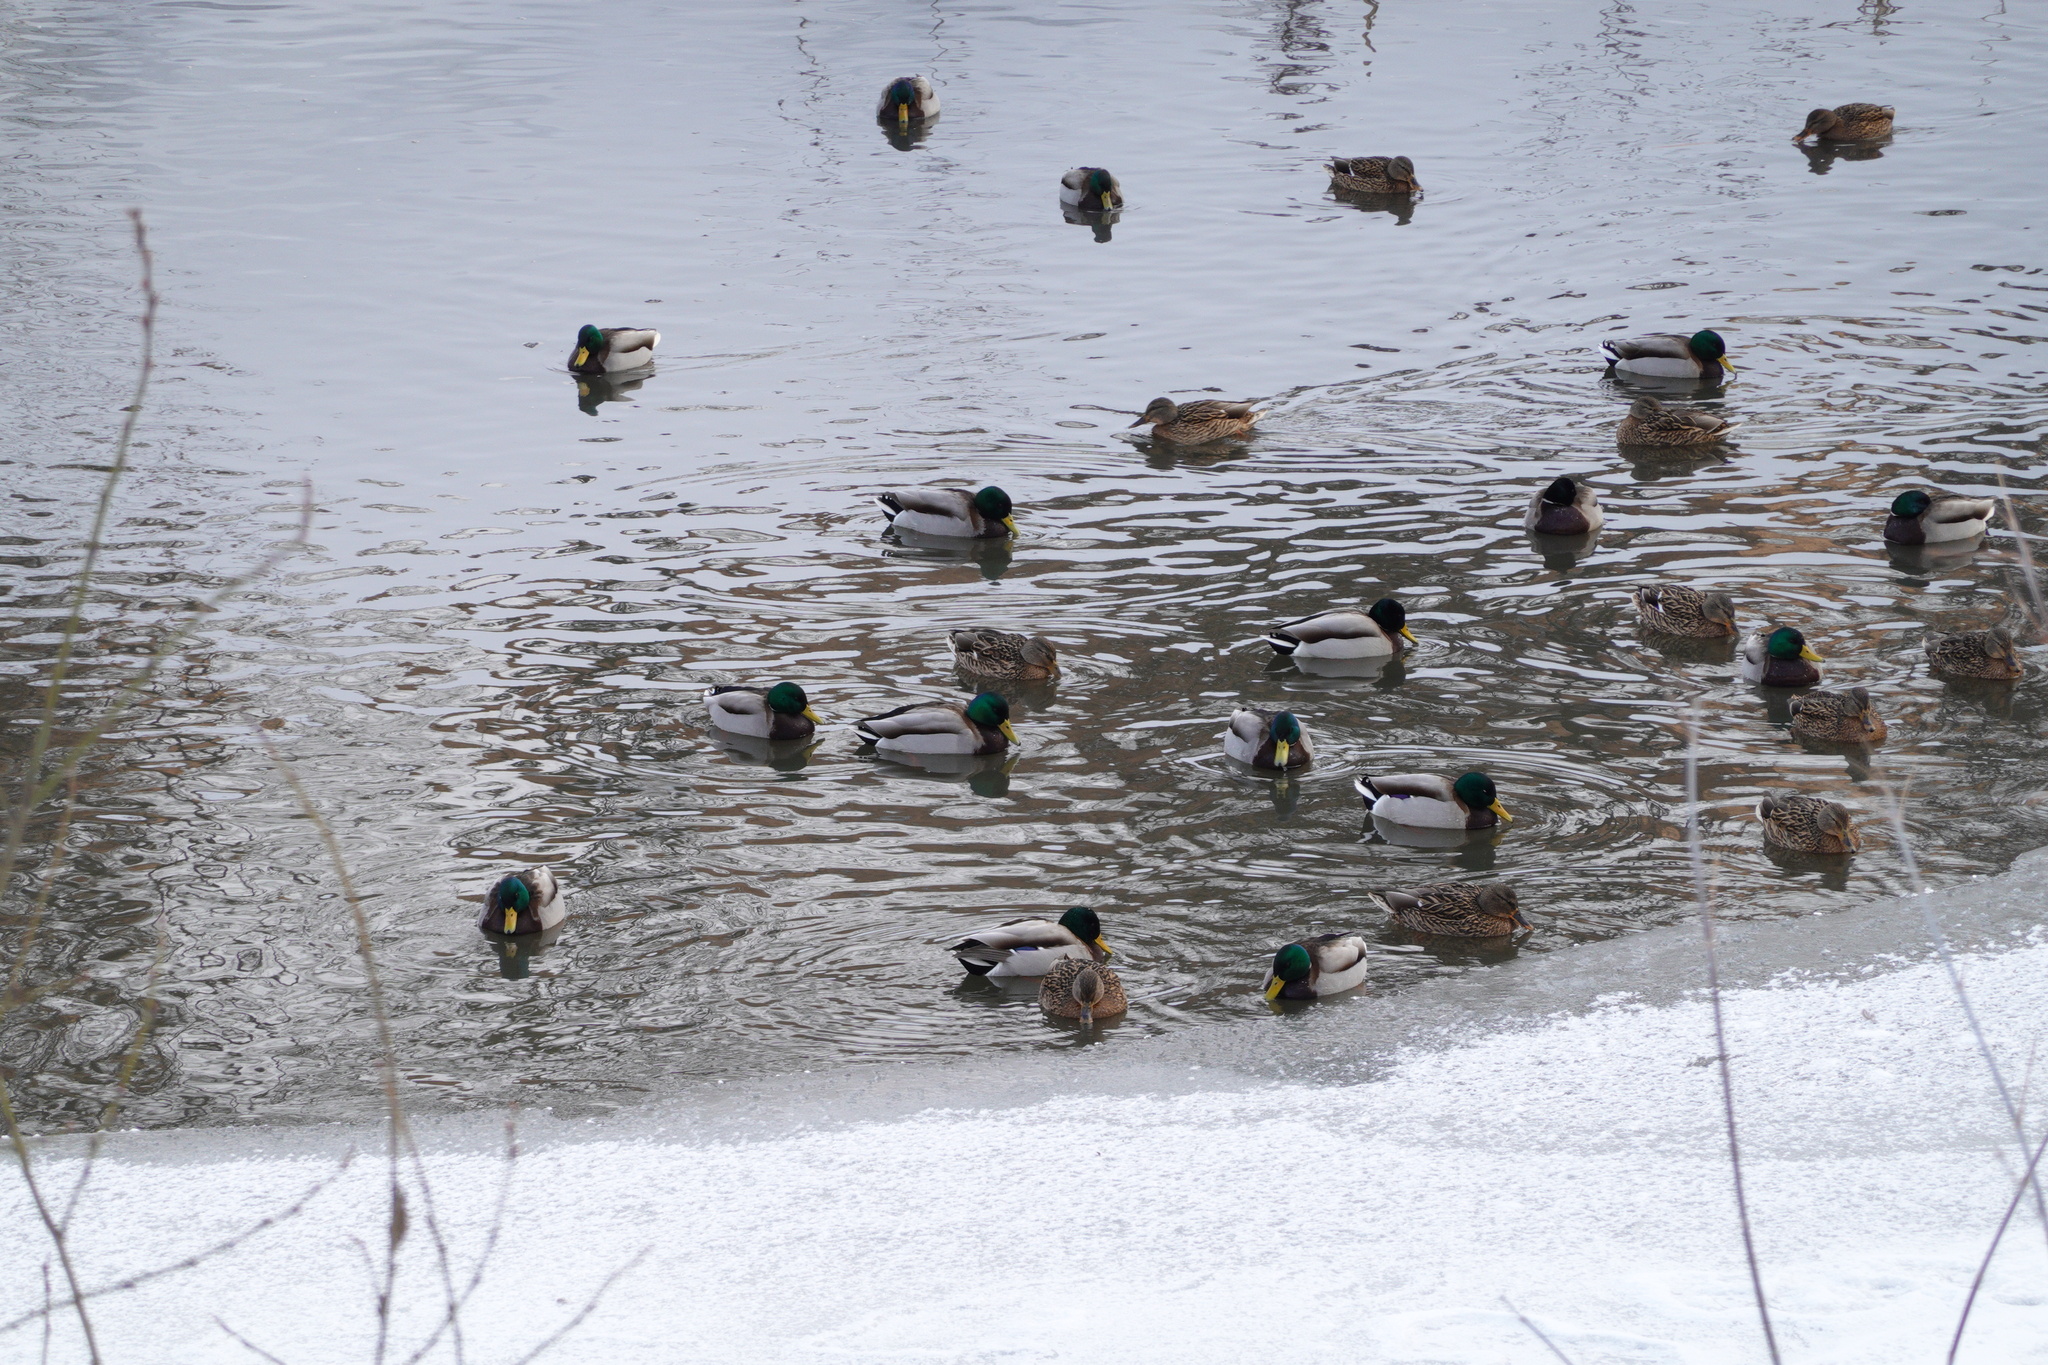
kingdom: Animalia
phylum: Chordata
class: Aves
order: Anseriformes
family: Anatidae
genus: Anas
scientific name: Anas platyrhynchos
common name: Mallard
